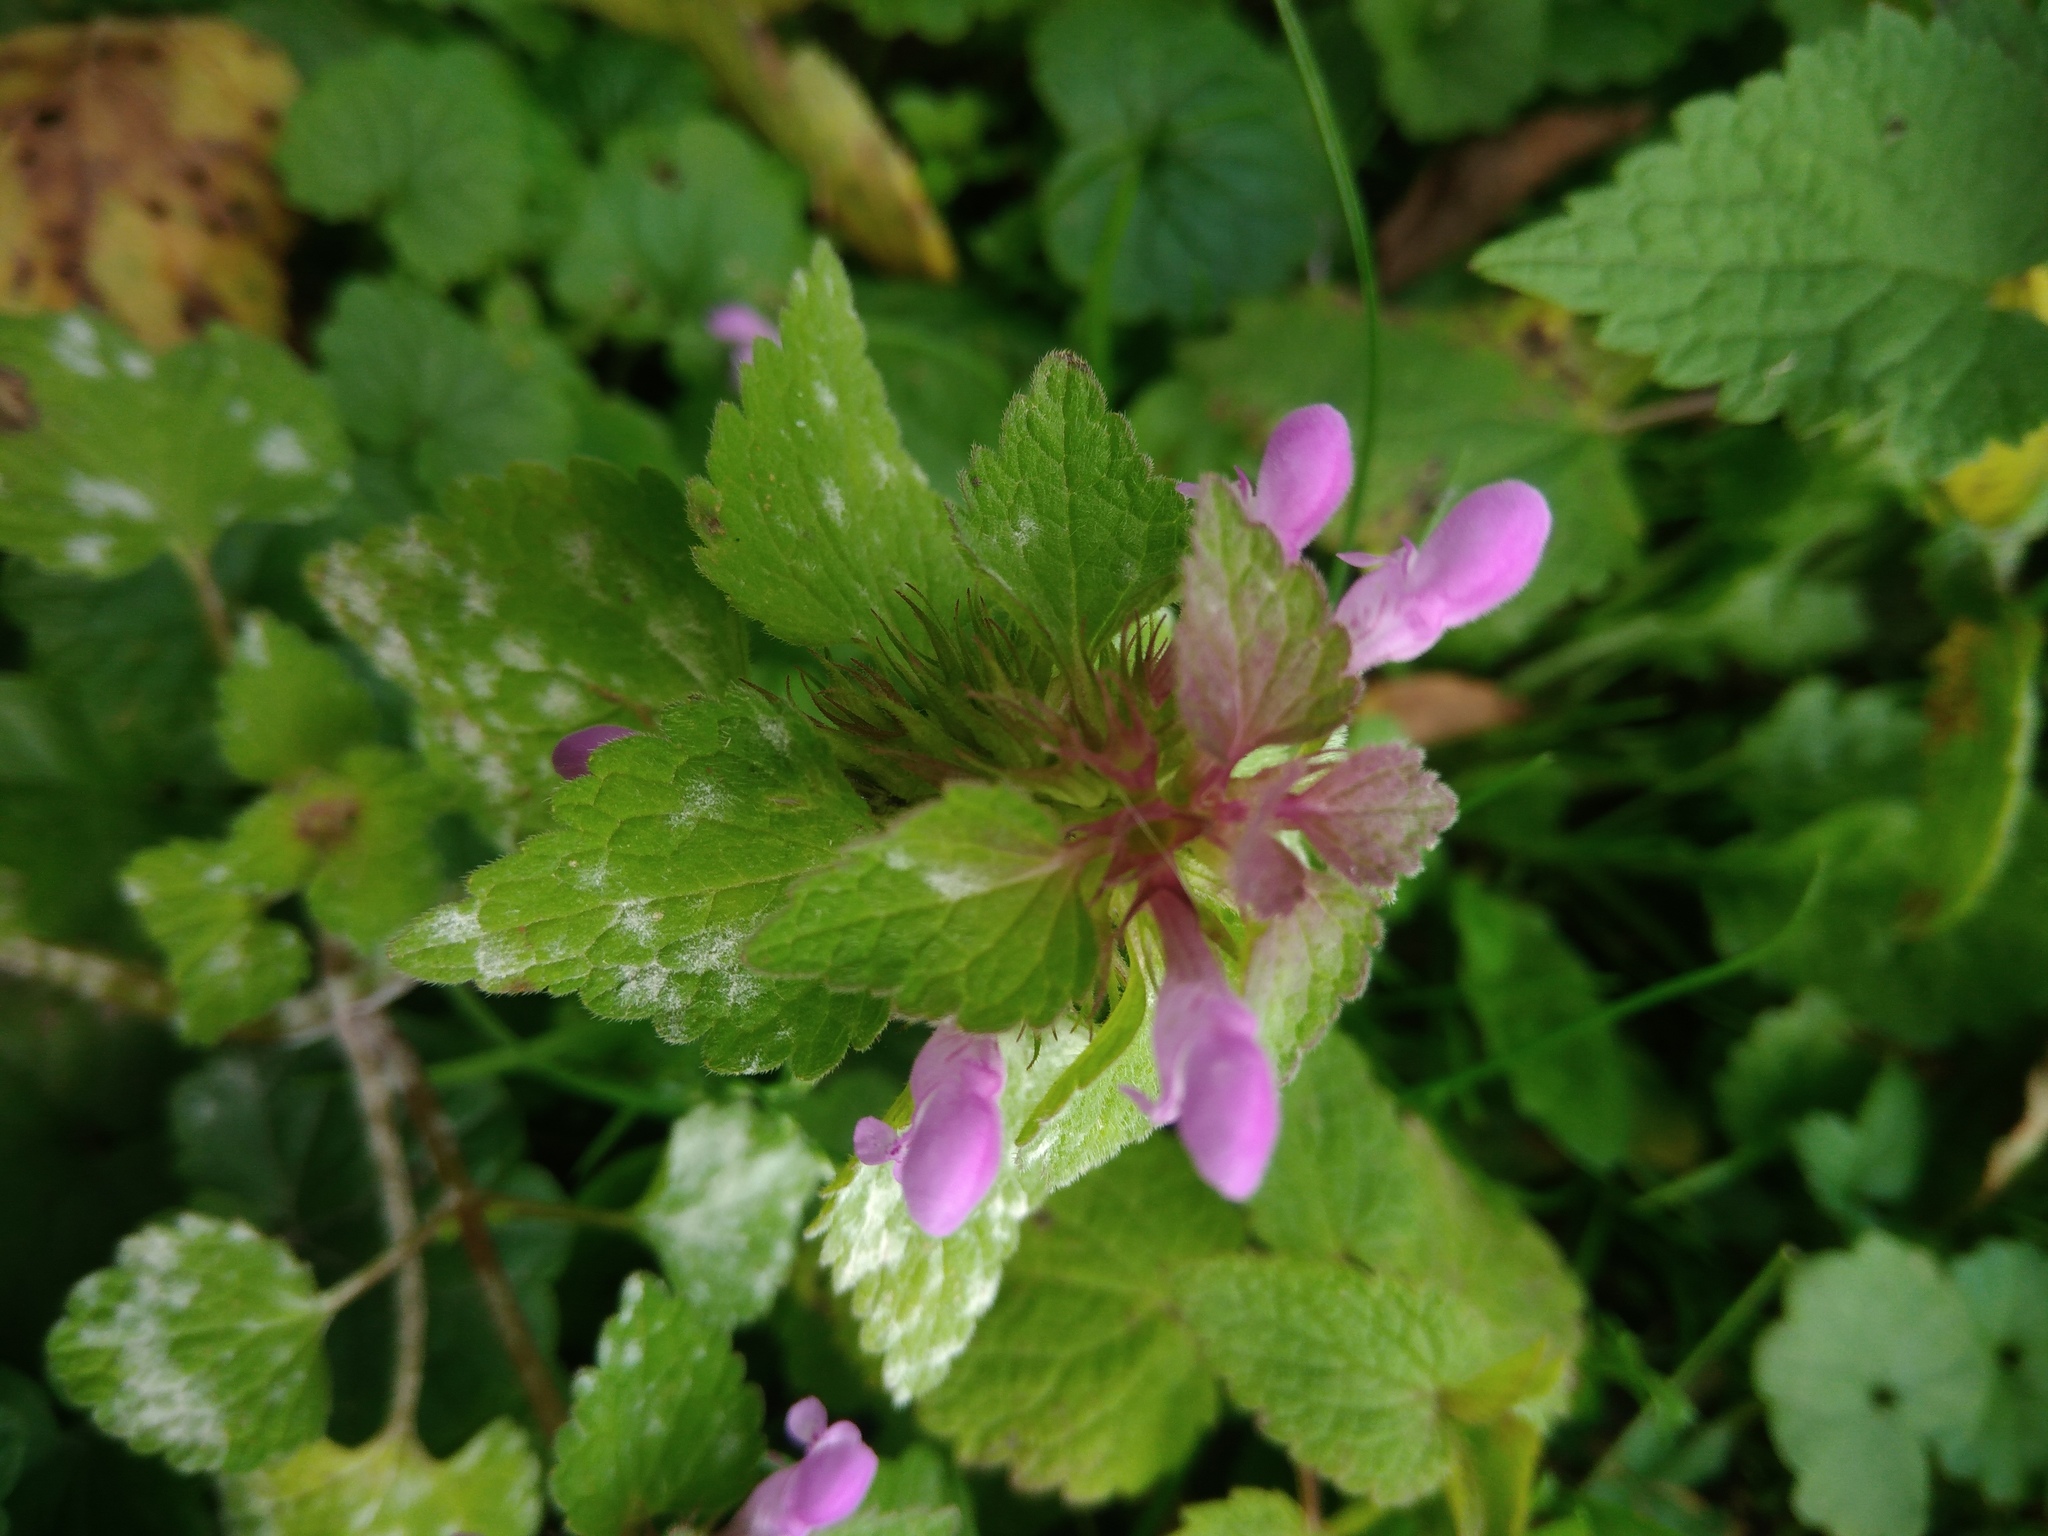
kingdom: Plantae
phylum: Tracheophyta
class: Magnoliopsida
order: Lamiales
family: Lamiaceae
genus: Lamium
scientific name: Lamium purpureum
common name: Red dead-nettle
